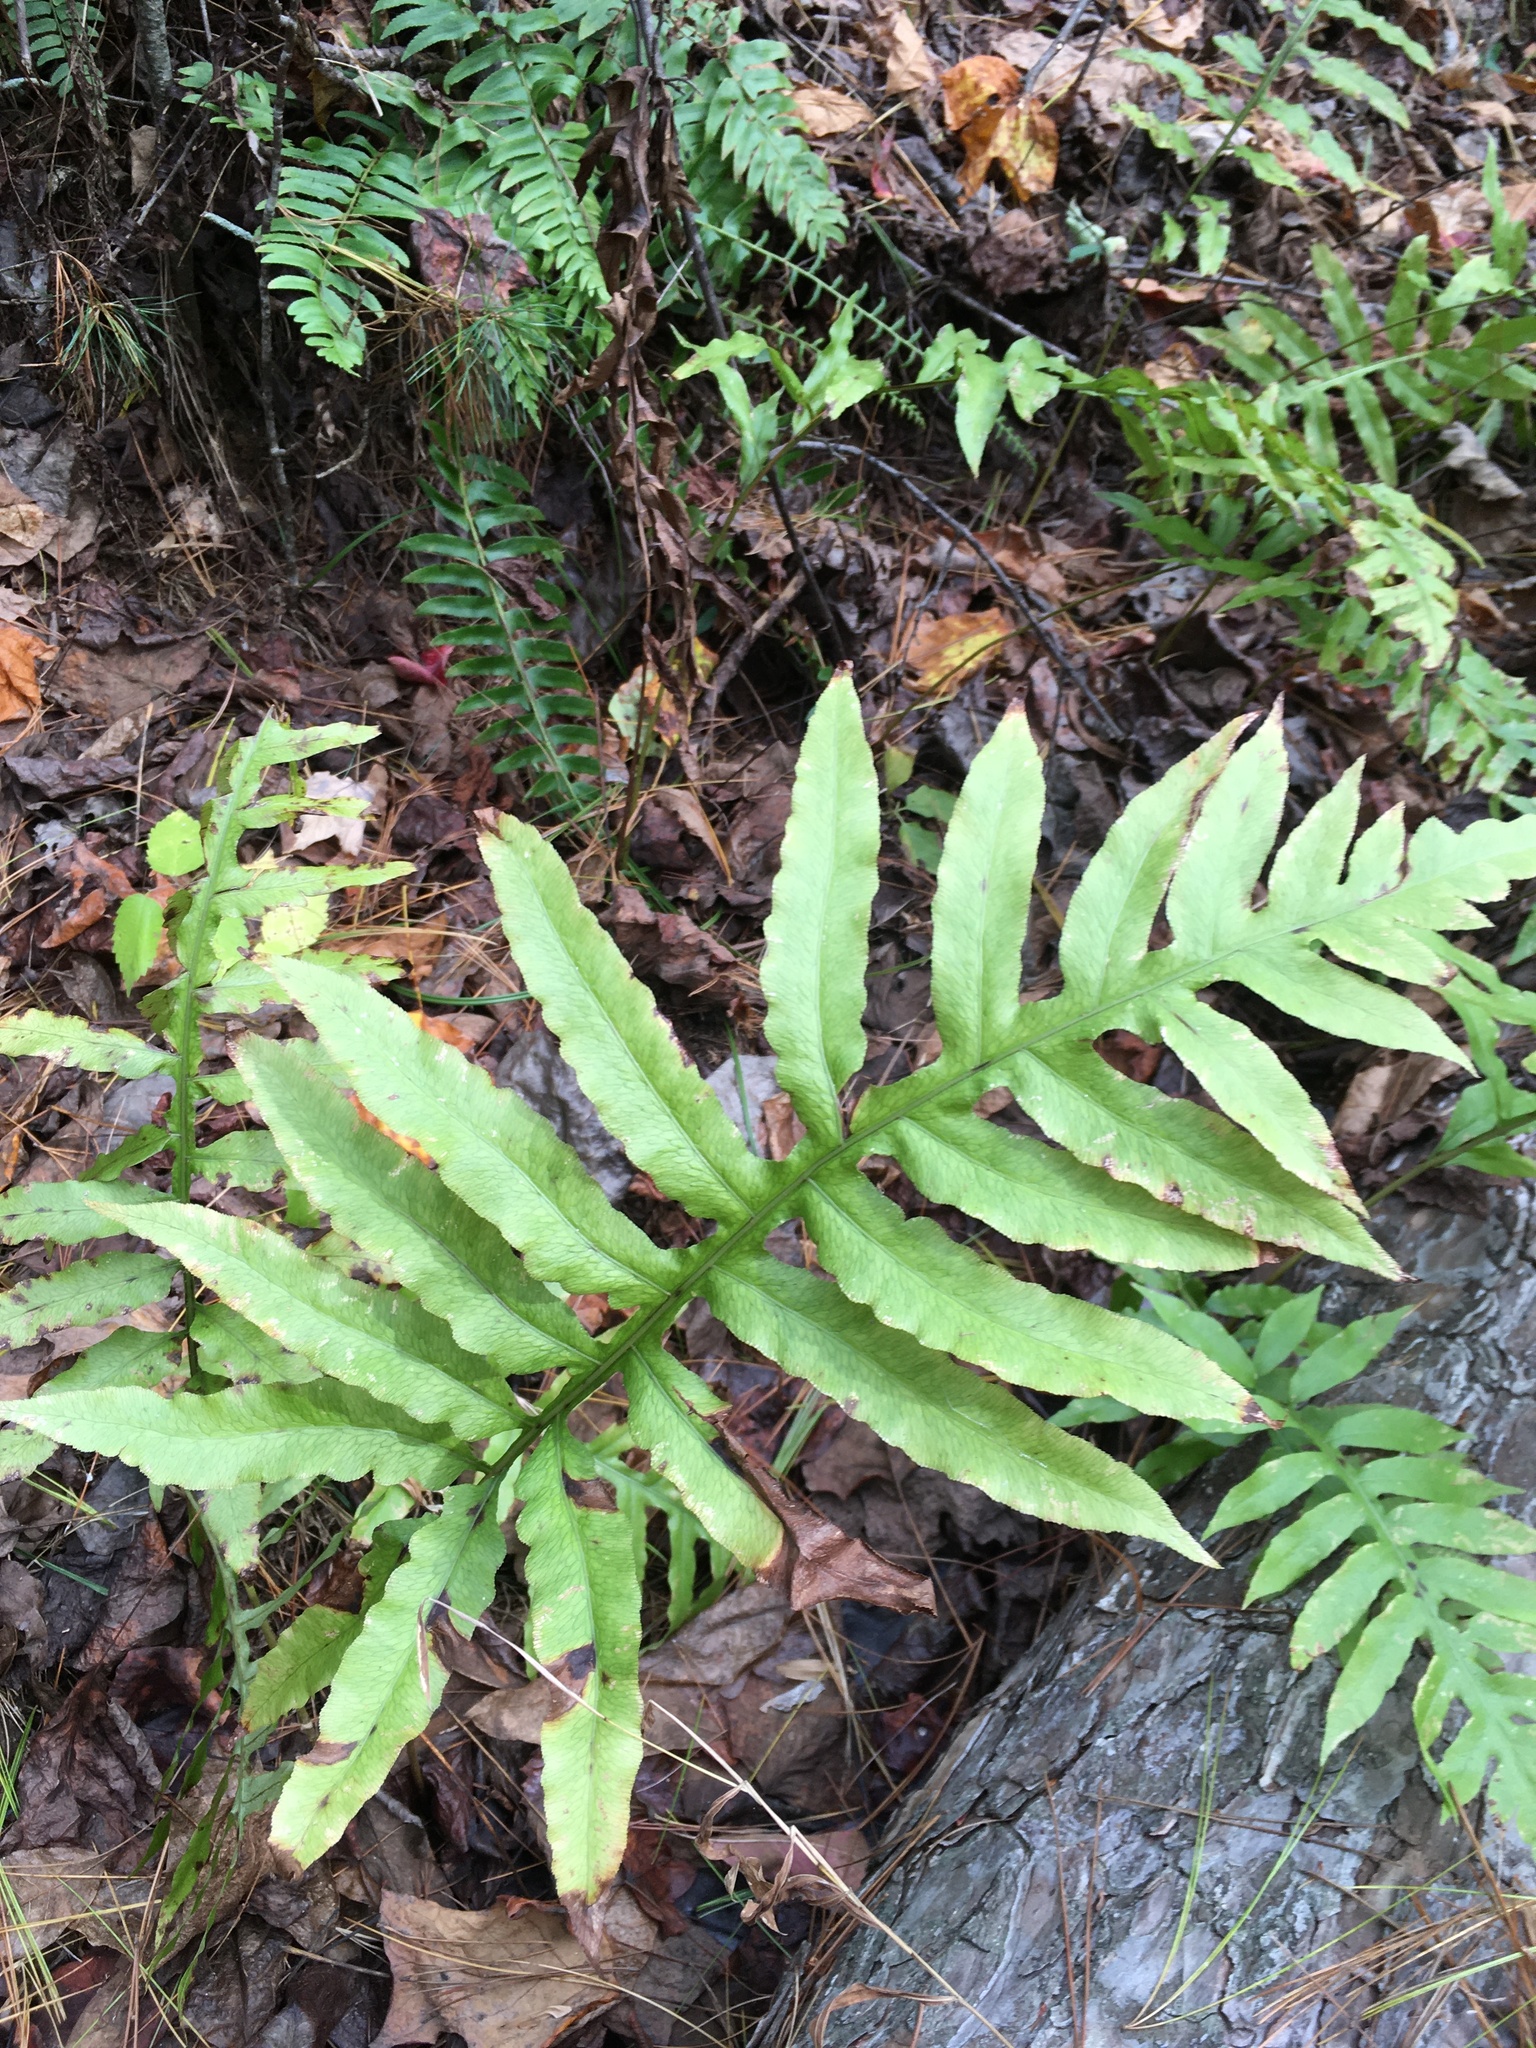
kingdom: Plantae
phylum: Tracheophyta
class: Polypodiopsida
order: Polypodiales
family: Blechnaceae
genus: Lorinseria
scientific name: Lorinseria areolata
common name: Dwarf chain fern
